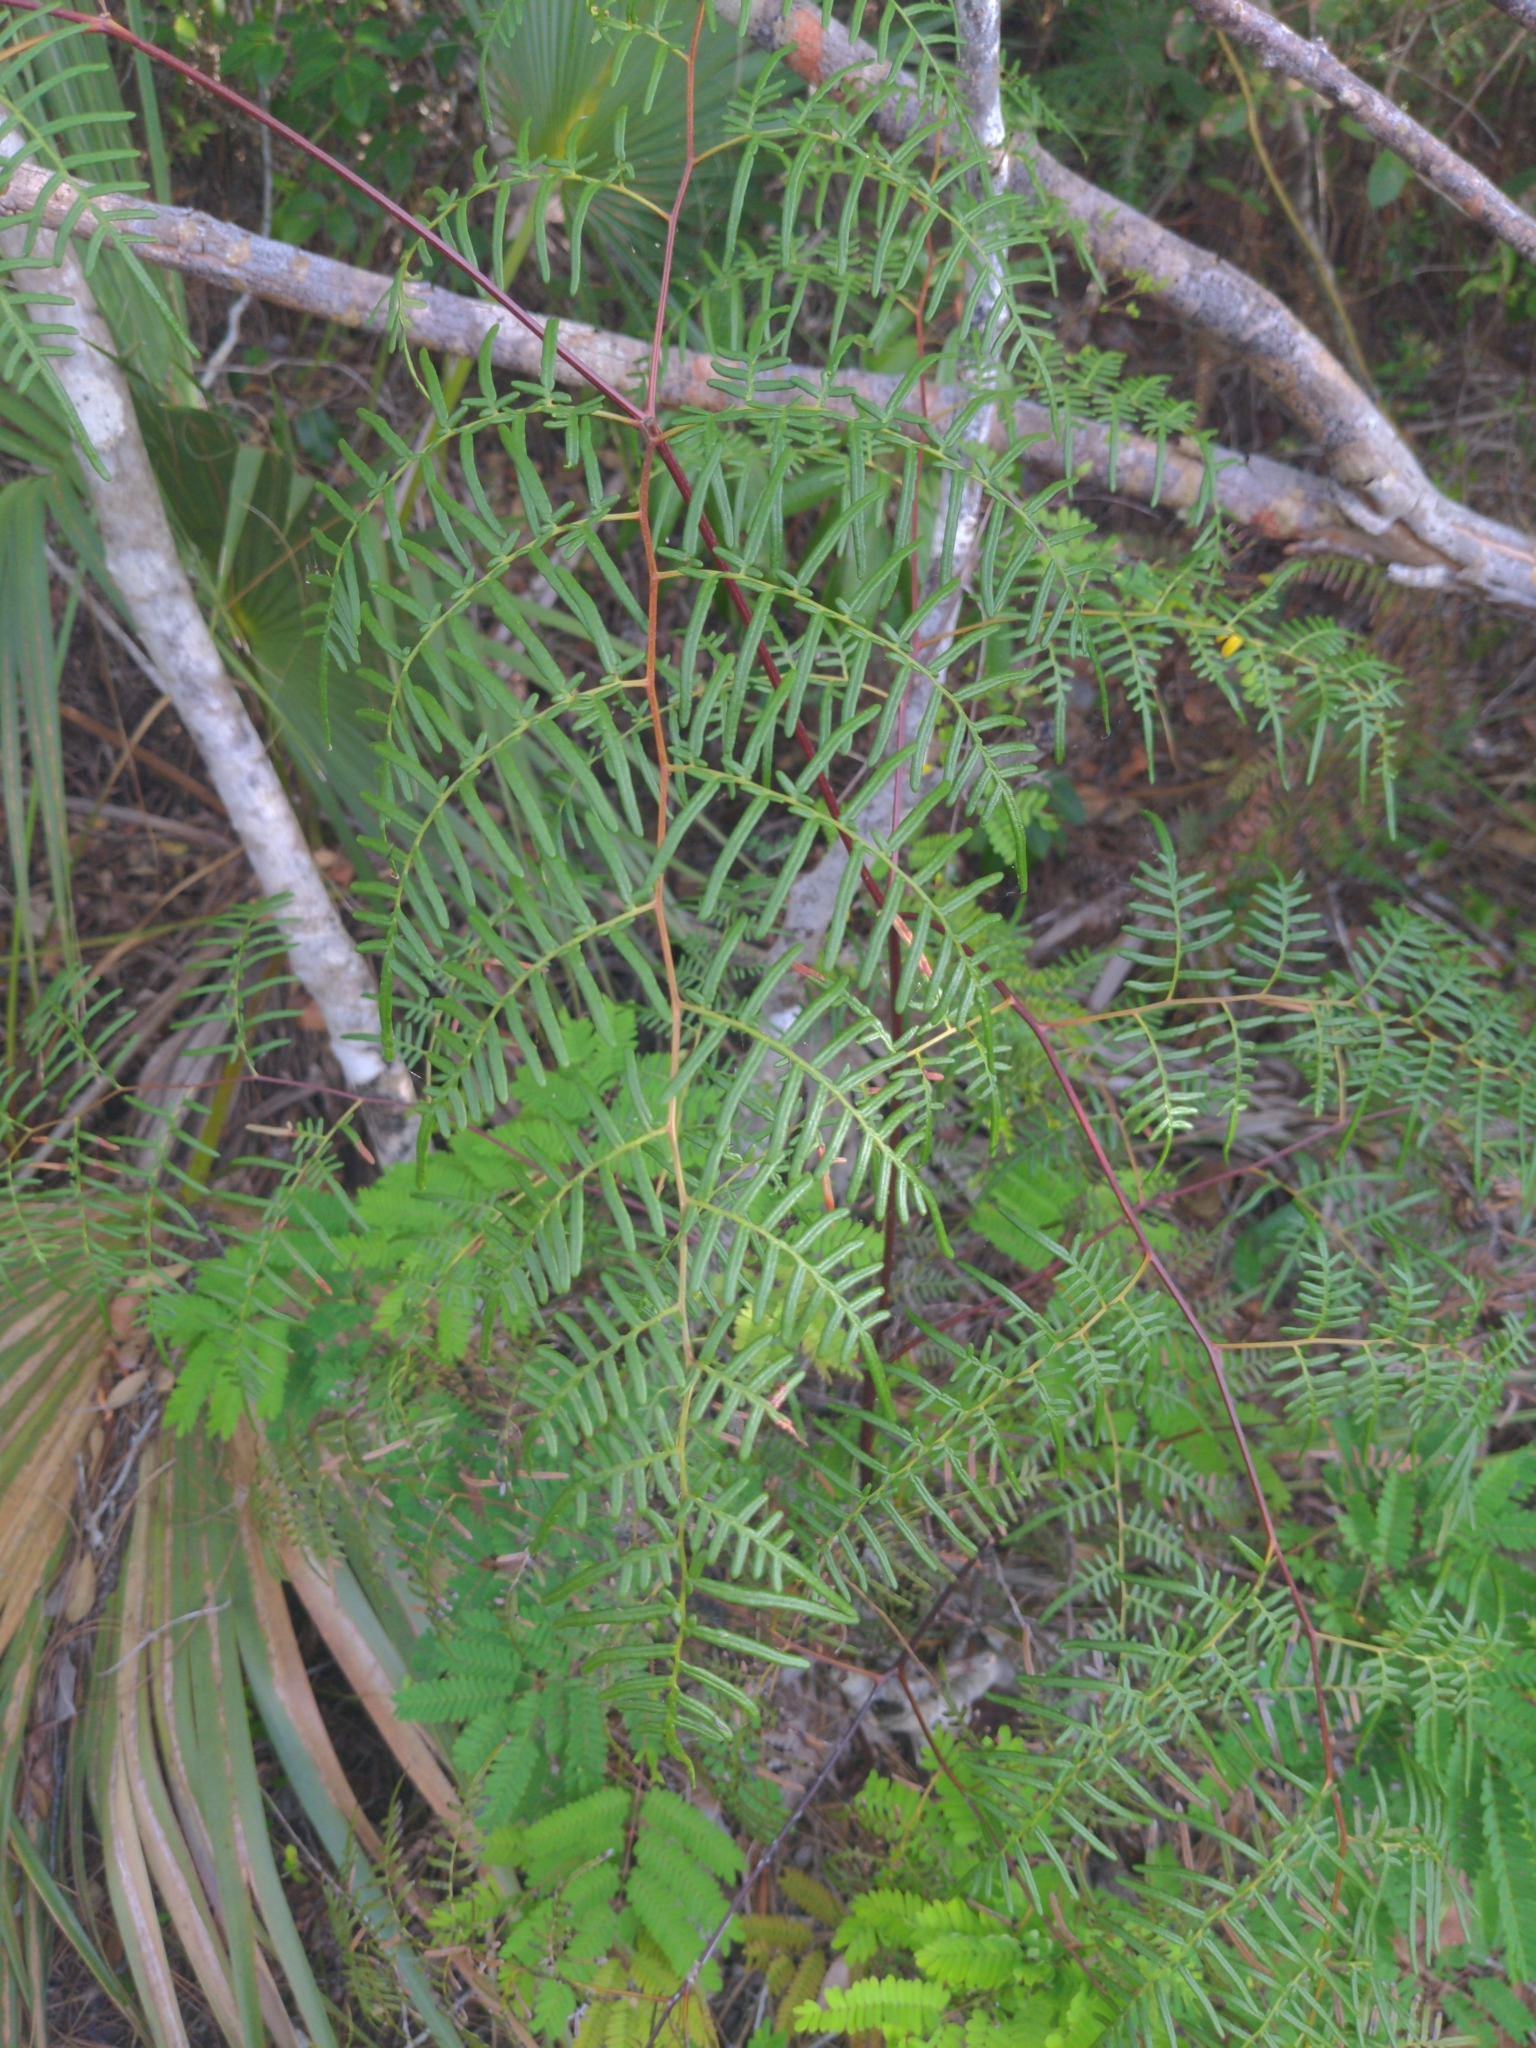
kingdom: Plantae
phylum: Tracheophyta
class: Polypodiopsida
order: Polypodiales
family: Dennstaedtiaceae
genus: Pteridium
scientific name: Pteridium caudatum
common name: Southern bracken fern
